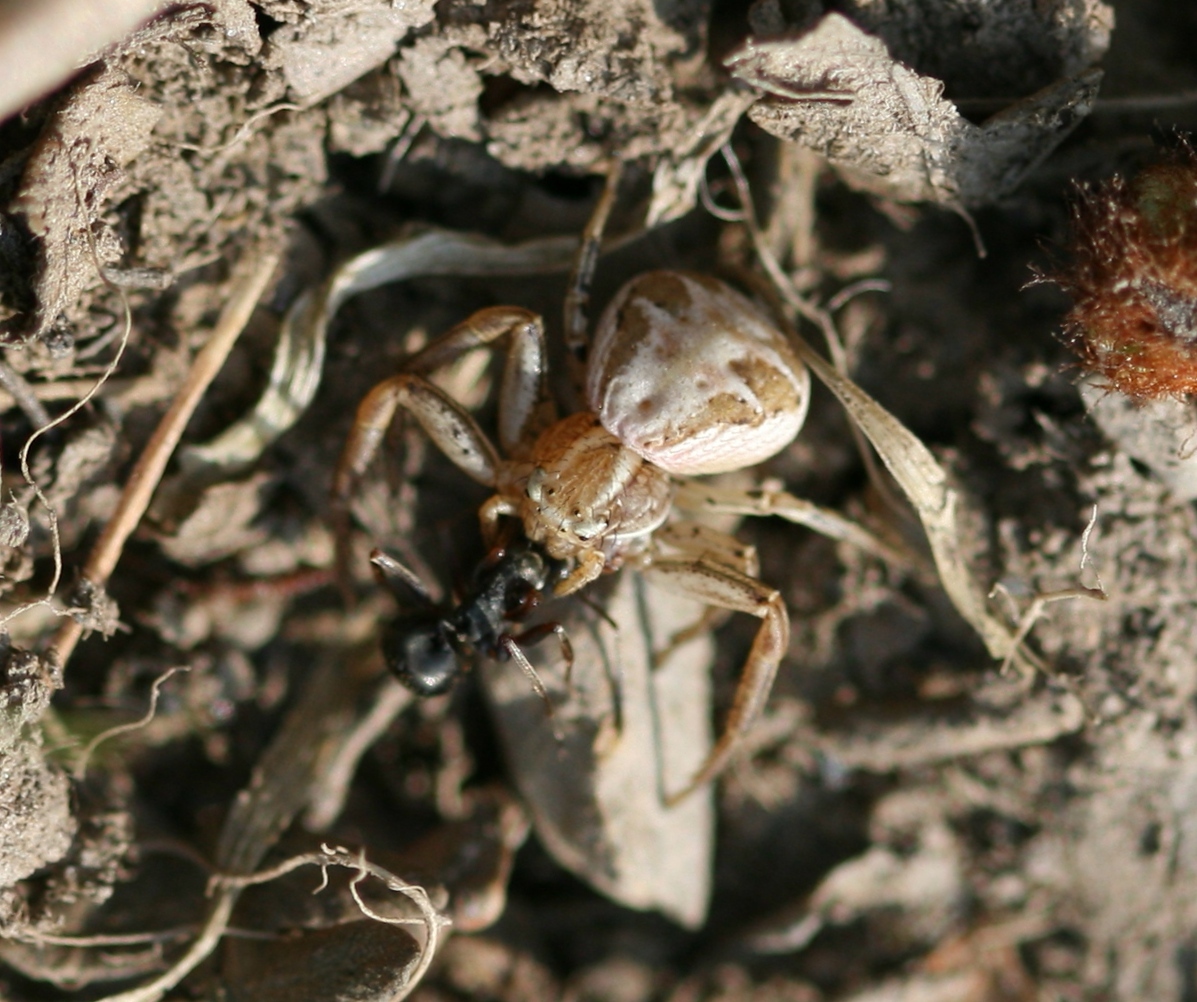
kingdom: Animalia
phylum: Arthropoda
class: Arachnida
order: Araneae
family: Thomisidae
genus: Xysticus
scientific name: Xysticus
